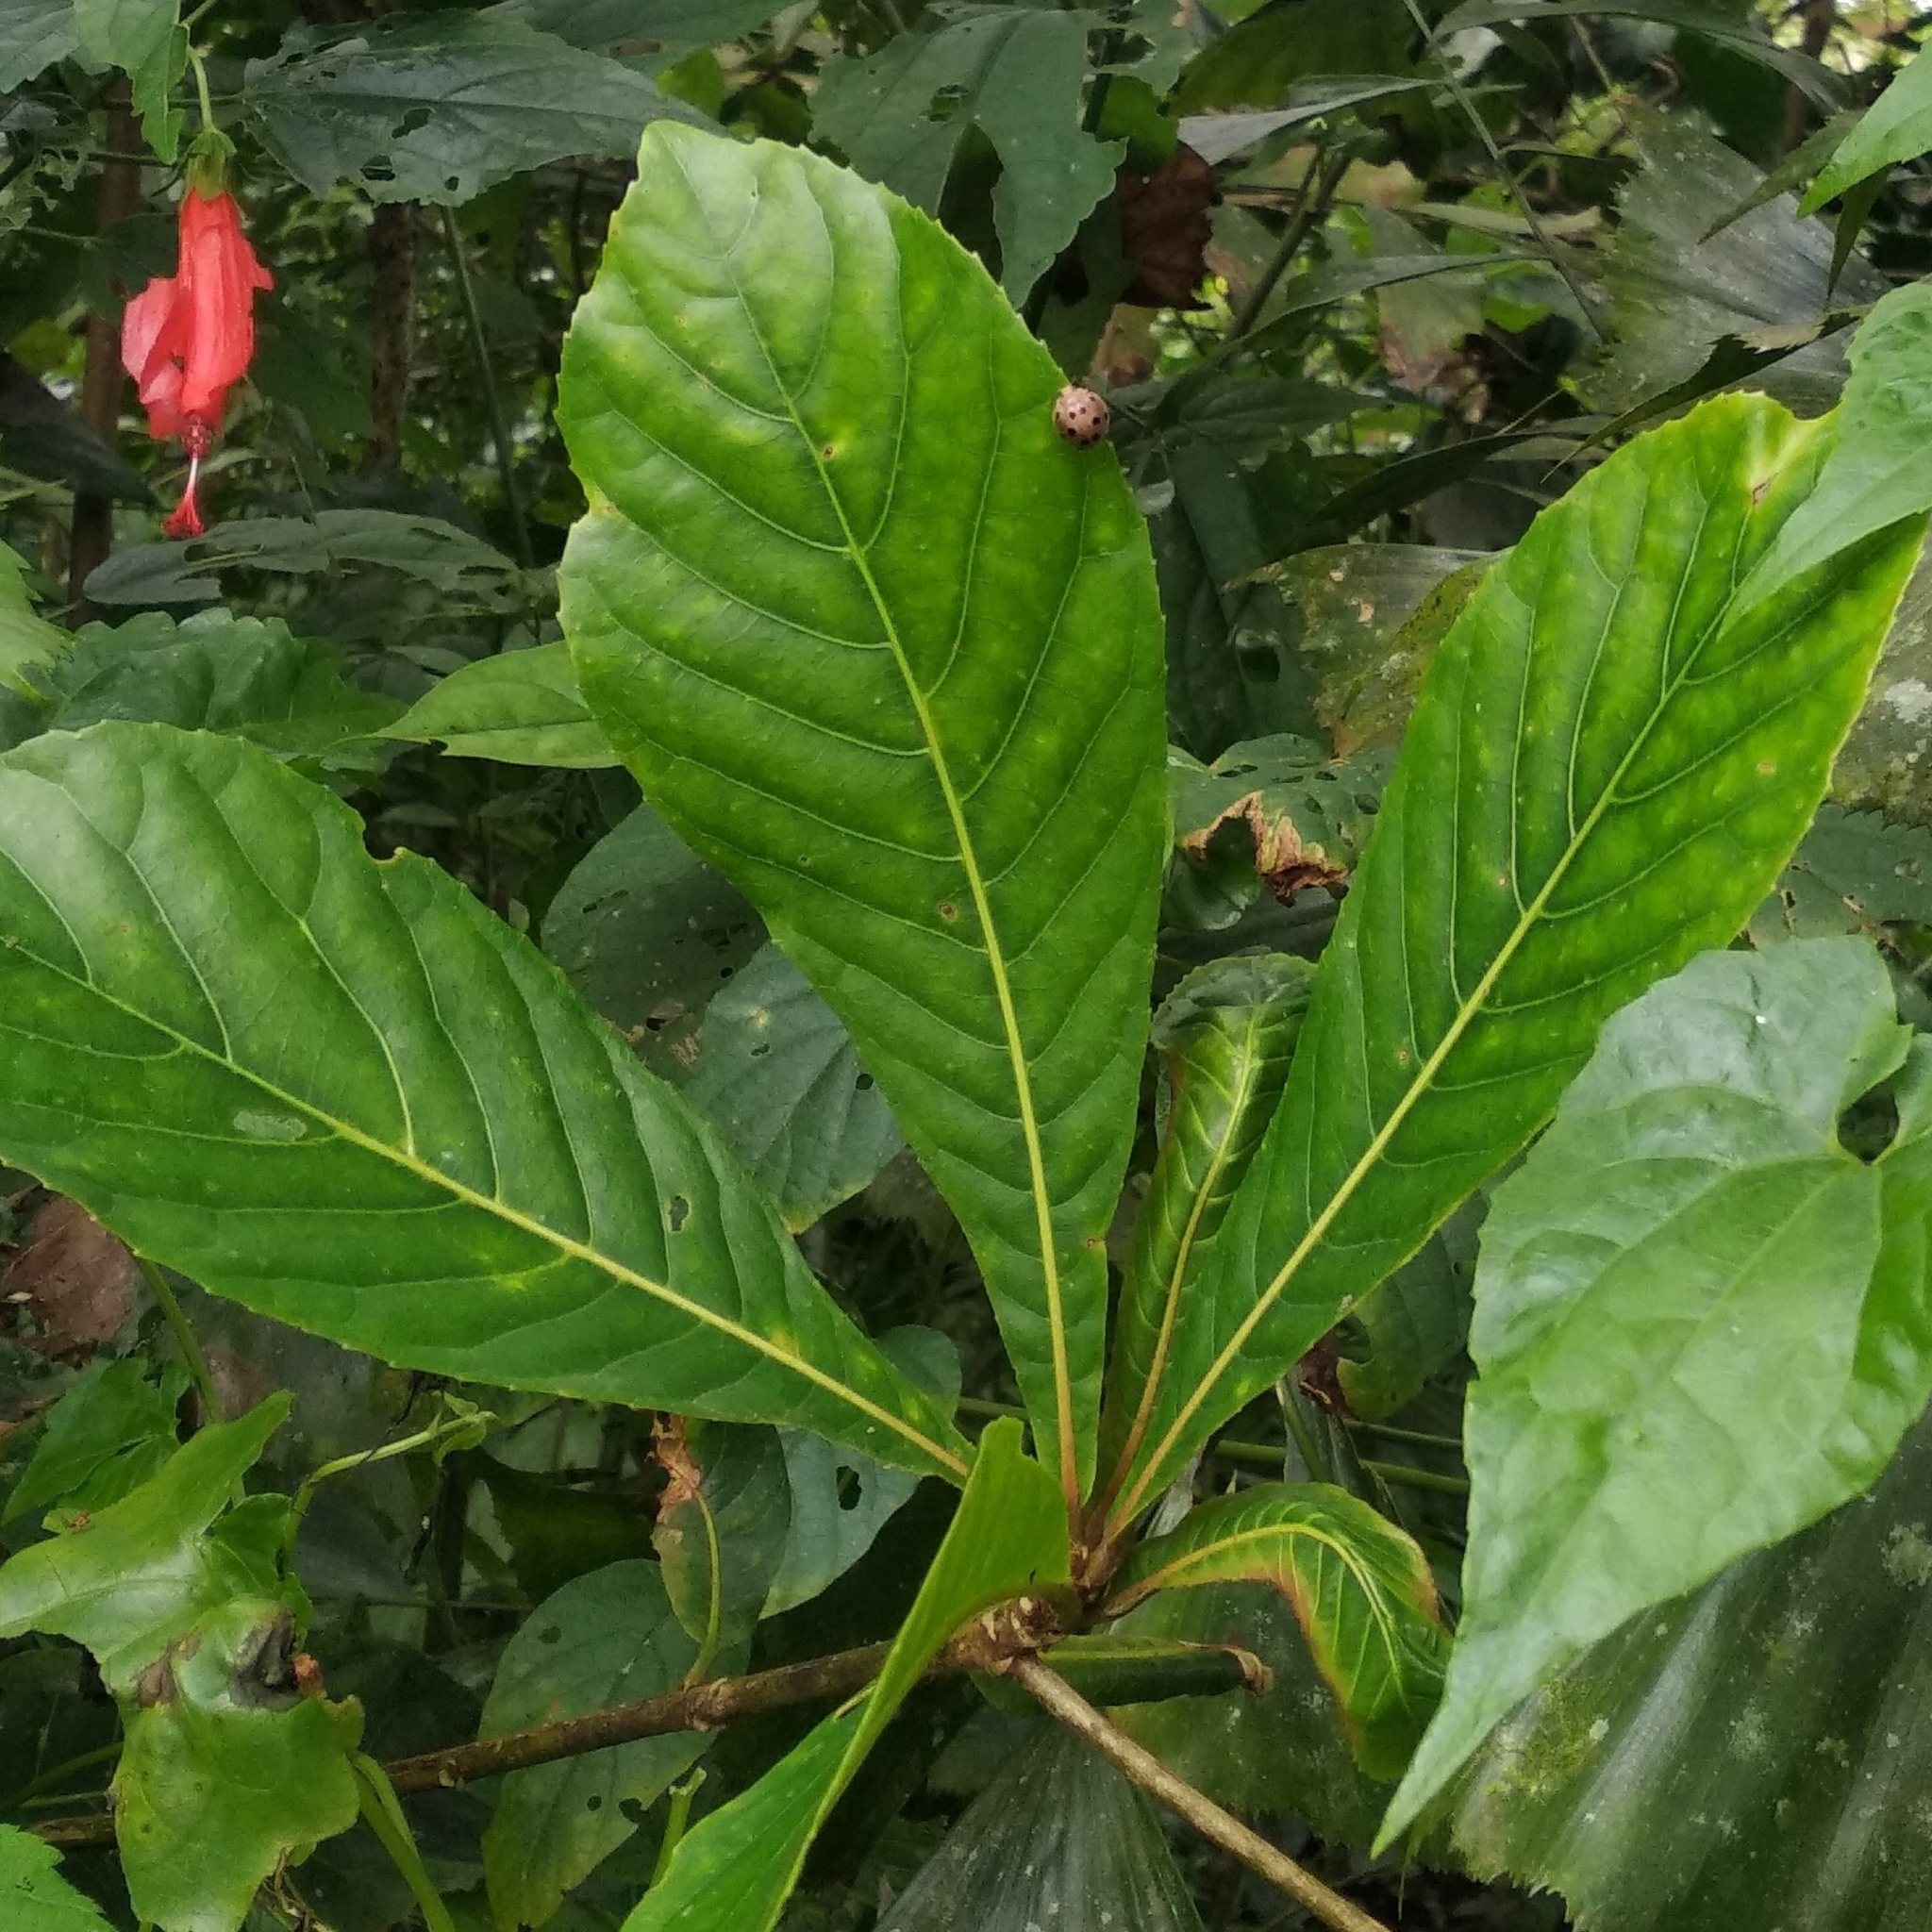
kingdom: Plantae
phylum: Tracheophyta
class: Magnoliopsida
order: Oxalidales
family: Elaeocarpaceae
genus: Elaeocarpus
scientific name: Elaeocarpus tuberculatus
